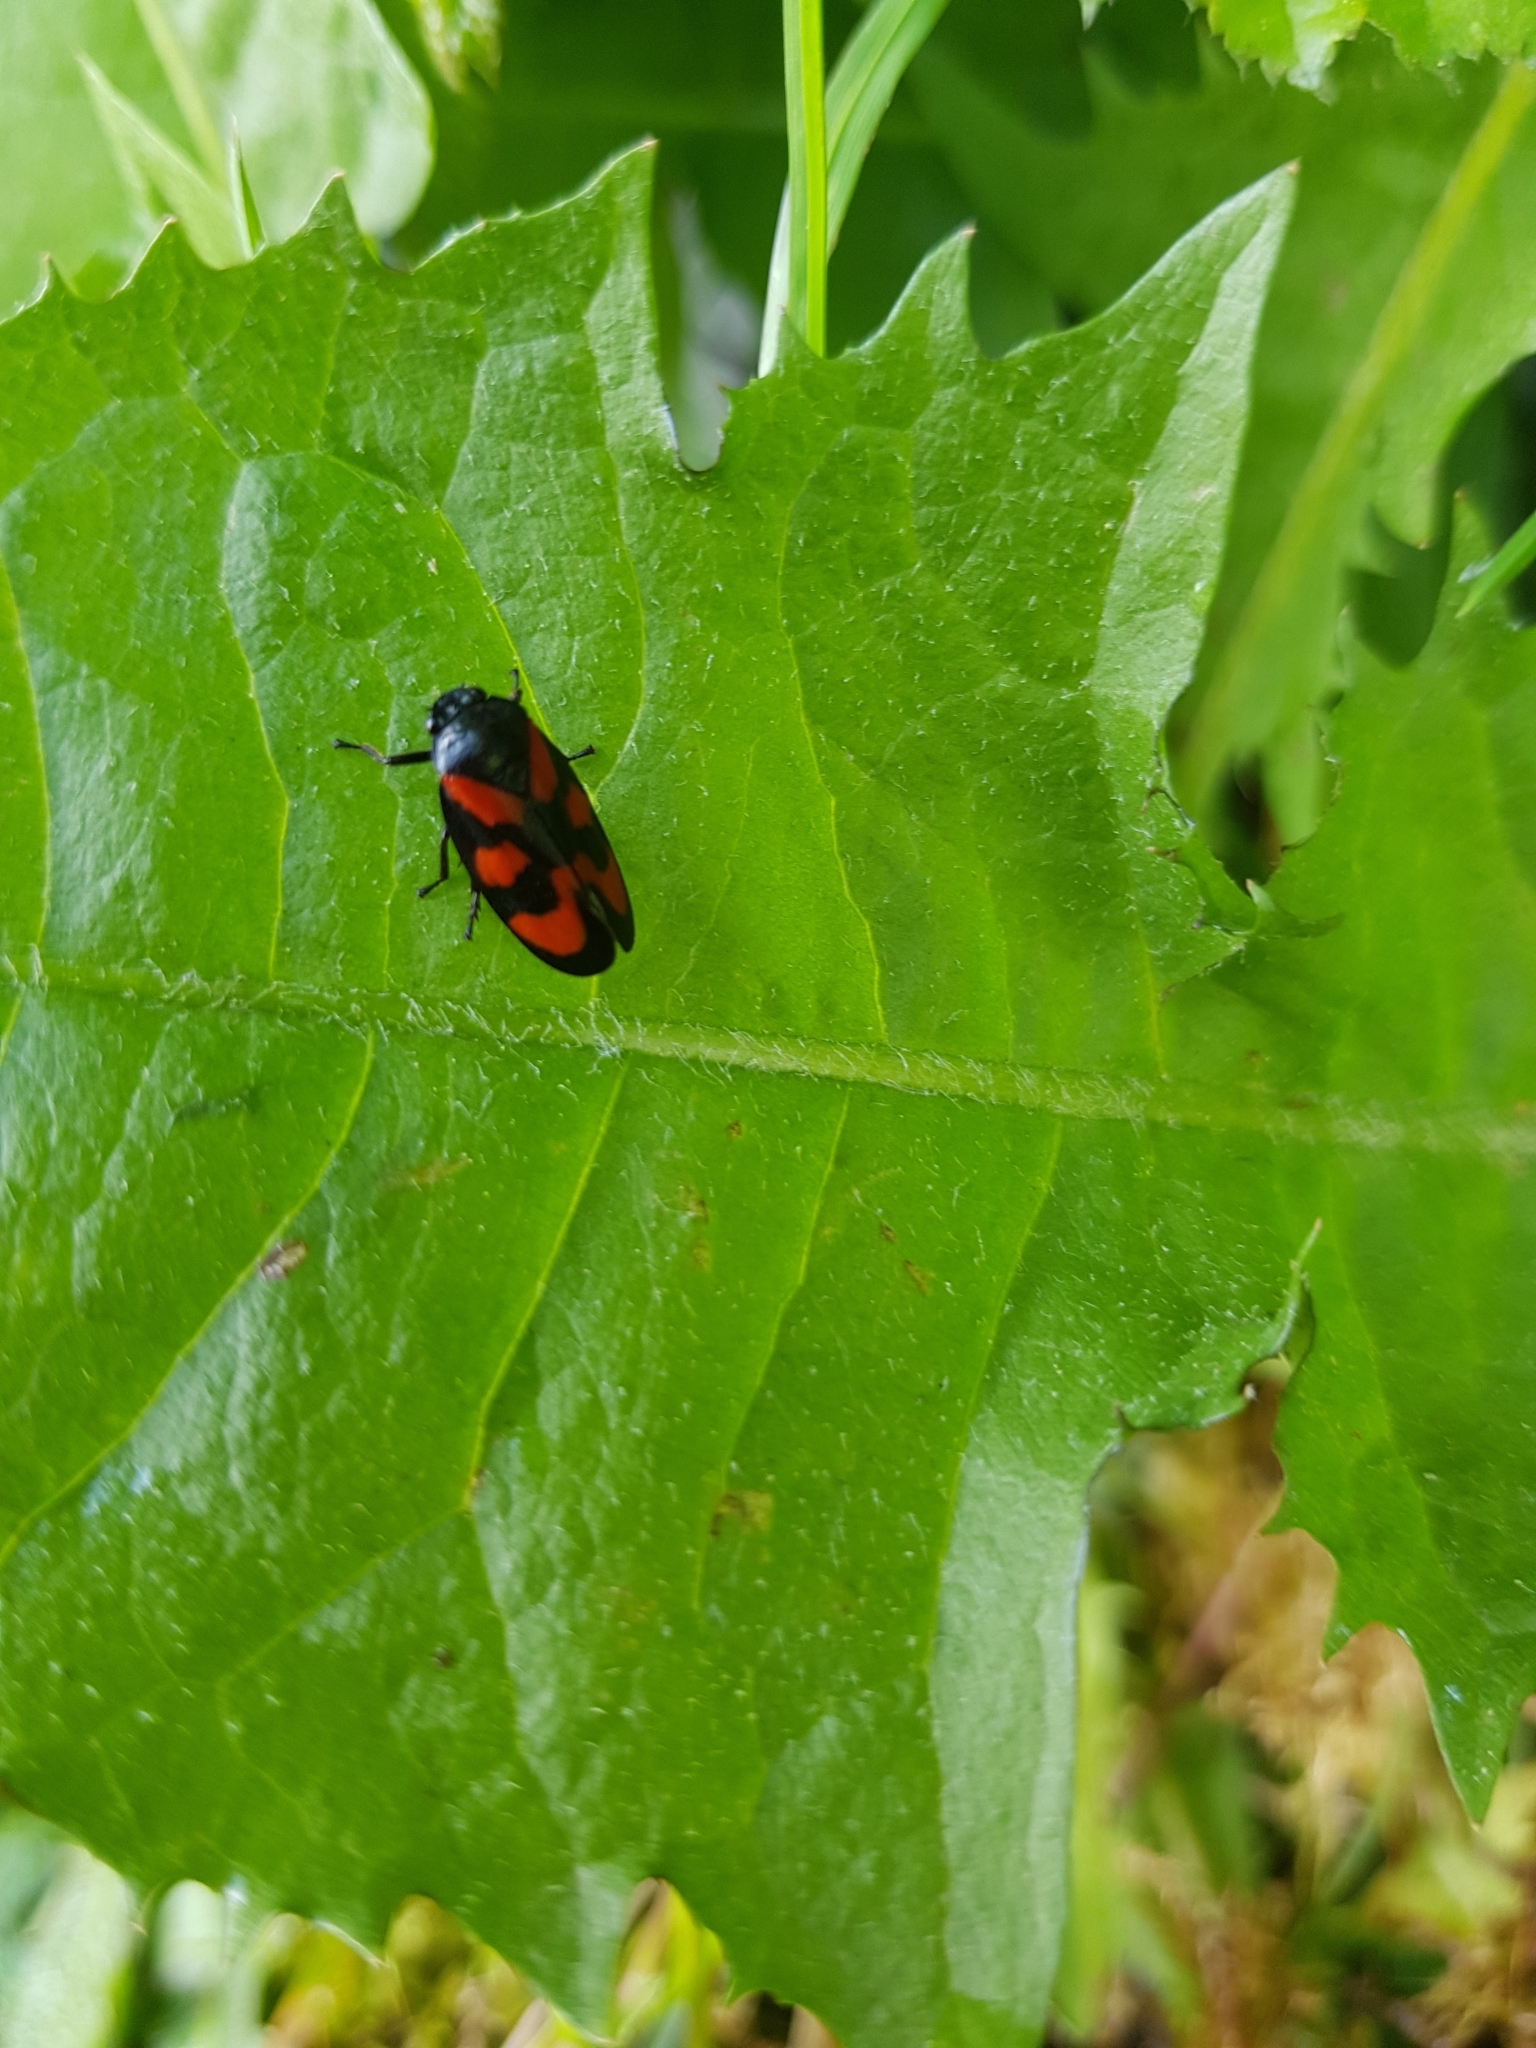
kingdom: Animalia
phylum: Arthropoda
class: Insecta
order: Hemiptera
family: Cercopidae
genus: Cercopis
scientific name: Cercopis vulnerata
